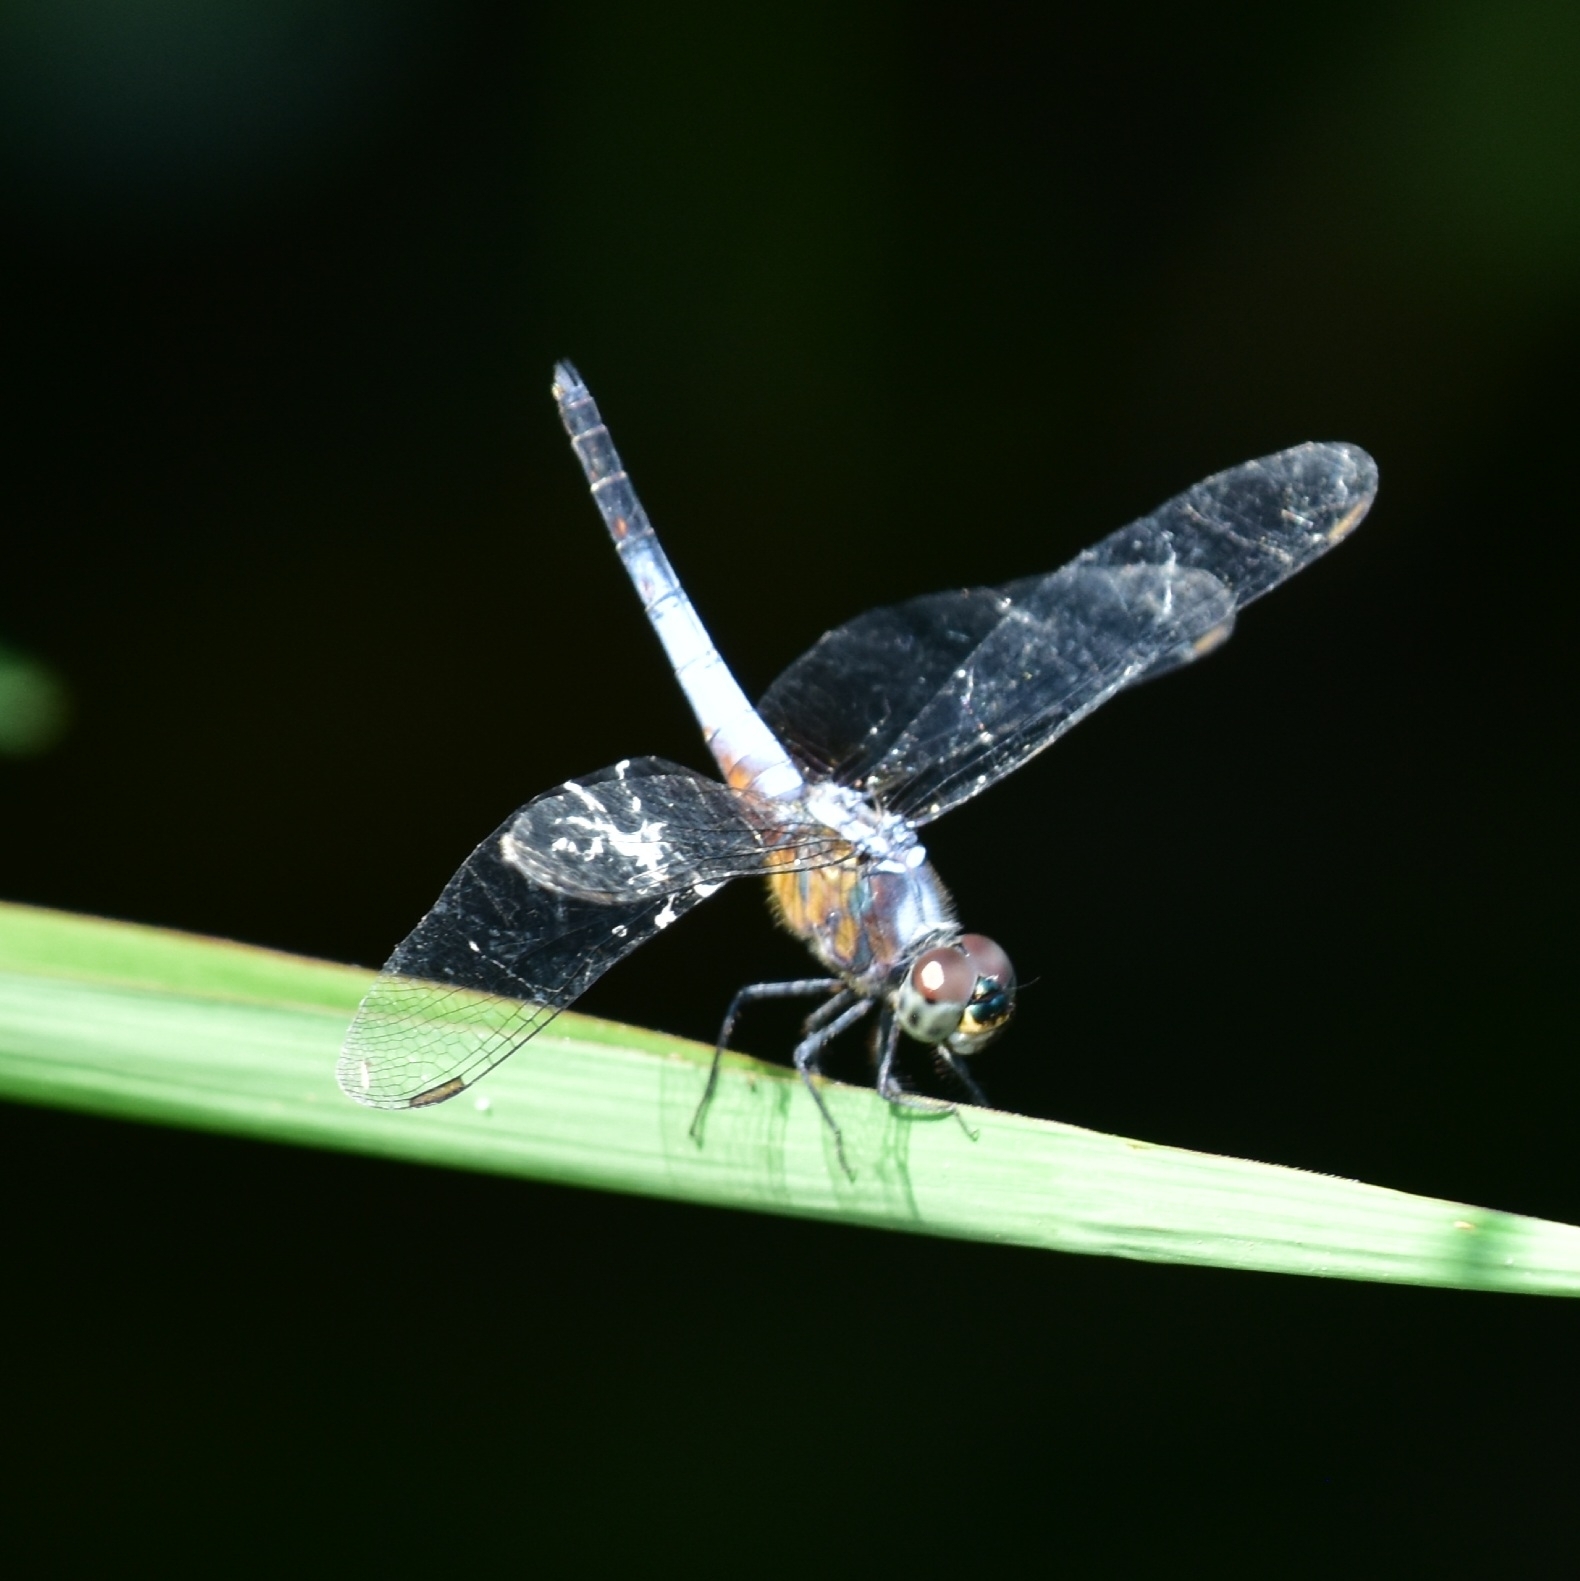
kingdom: Animalia
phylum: Arthropoda
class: Insecta
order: Odonata
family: Libellulidae
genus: Brachydiplax
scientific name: Brachydiplax chalybea
